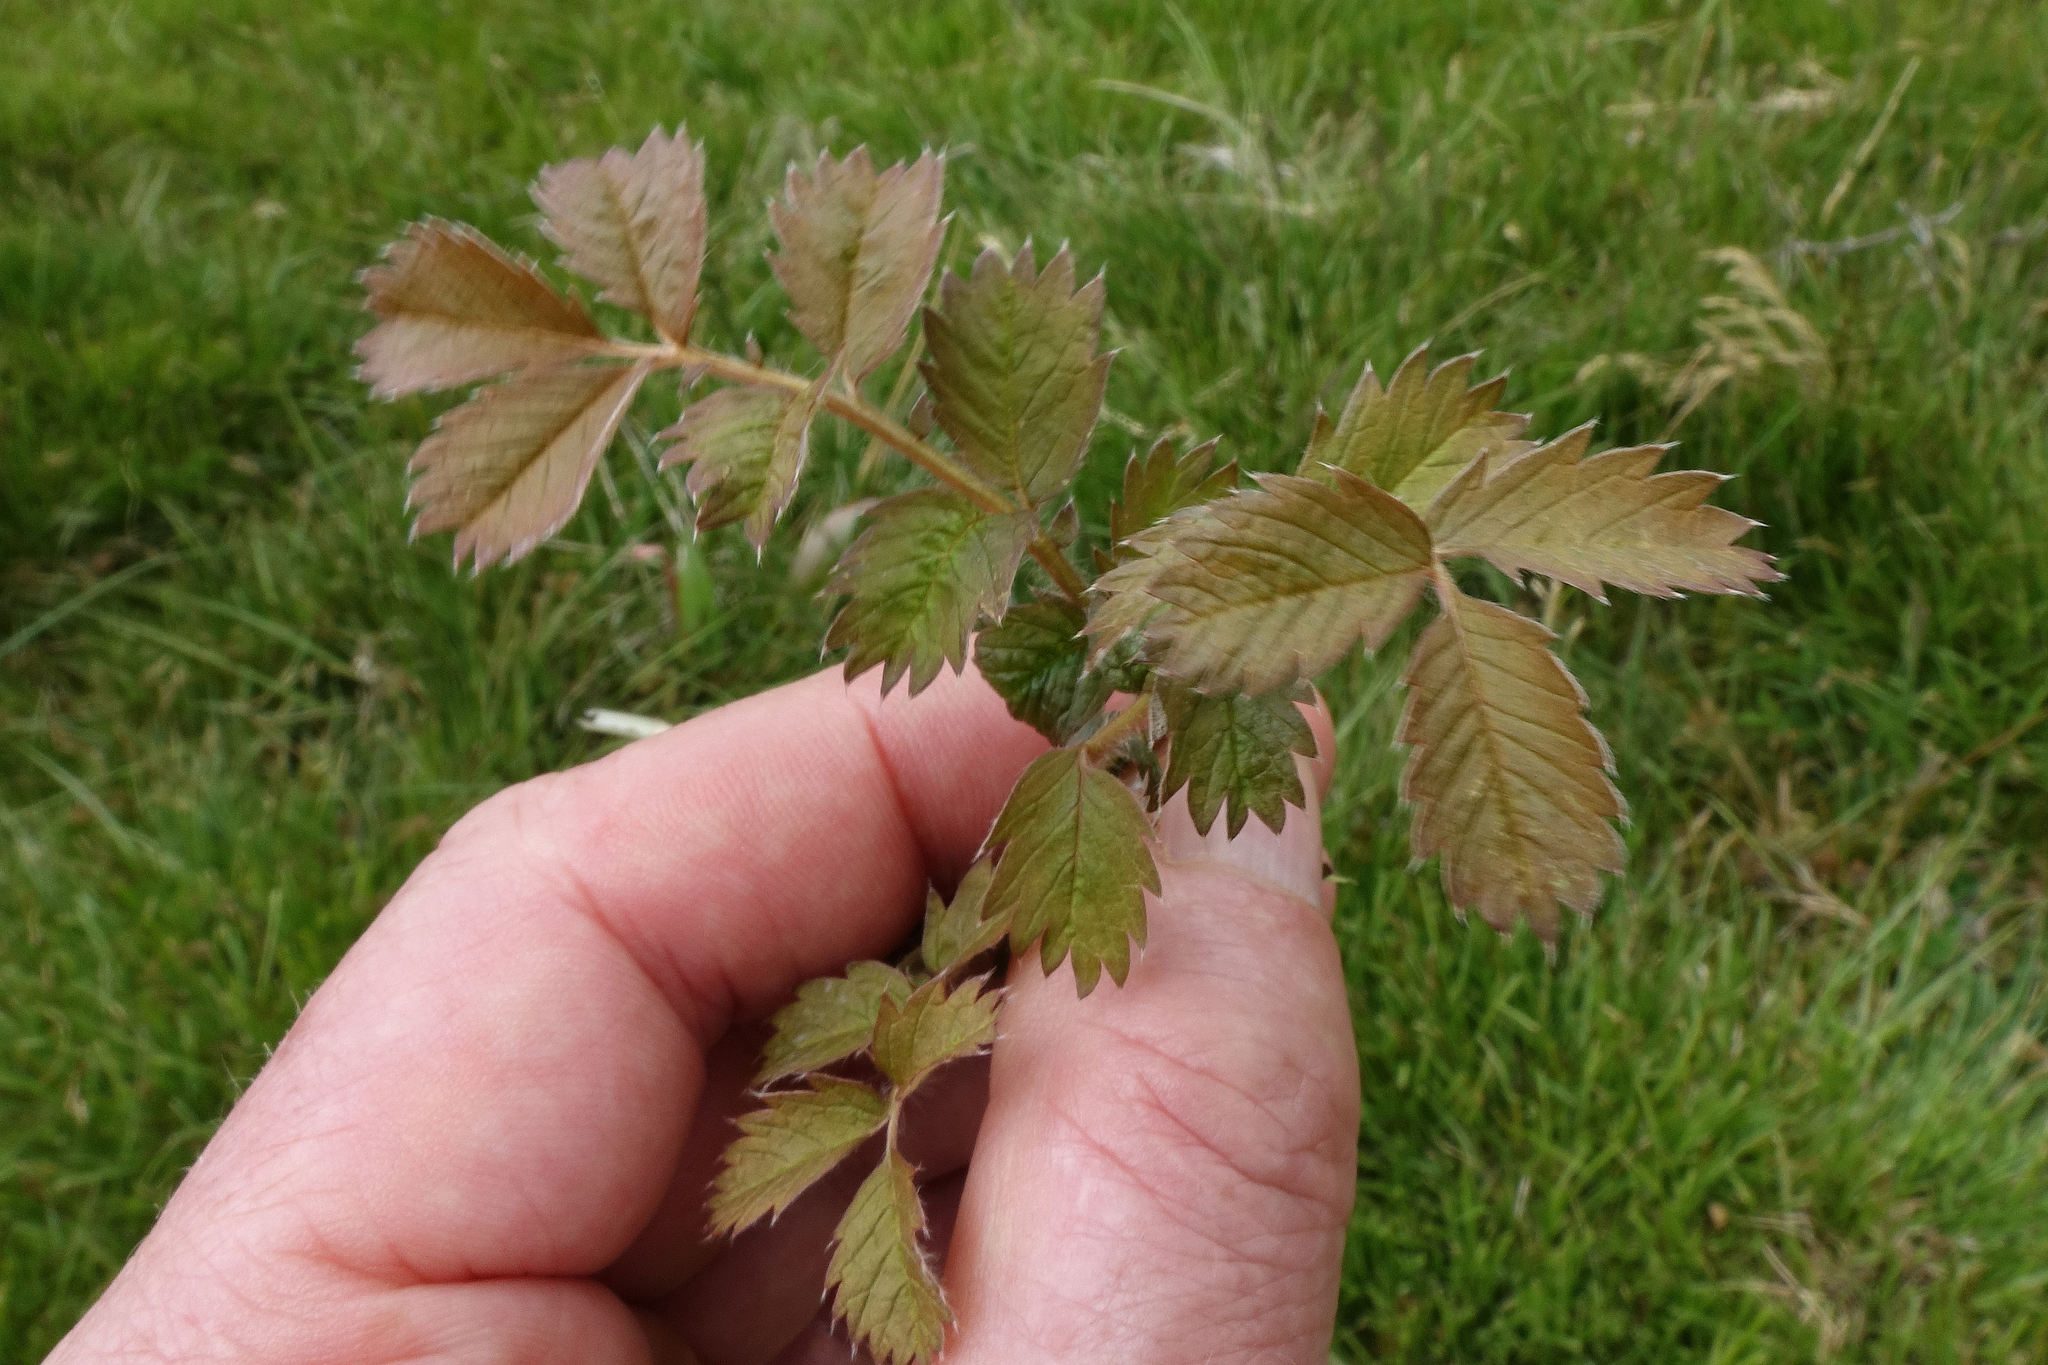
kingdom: Plantae
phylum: Tracheophyta
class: Magnoliopsida
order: Rosales
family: Rosaceae
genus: Argentina
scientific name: Argentina anserinoides
